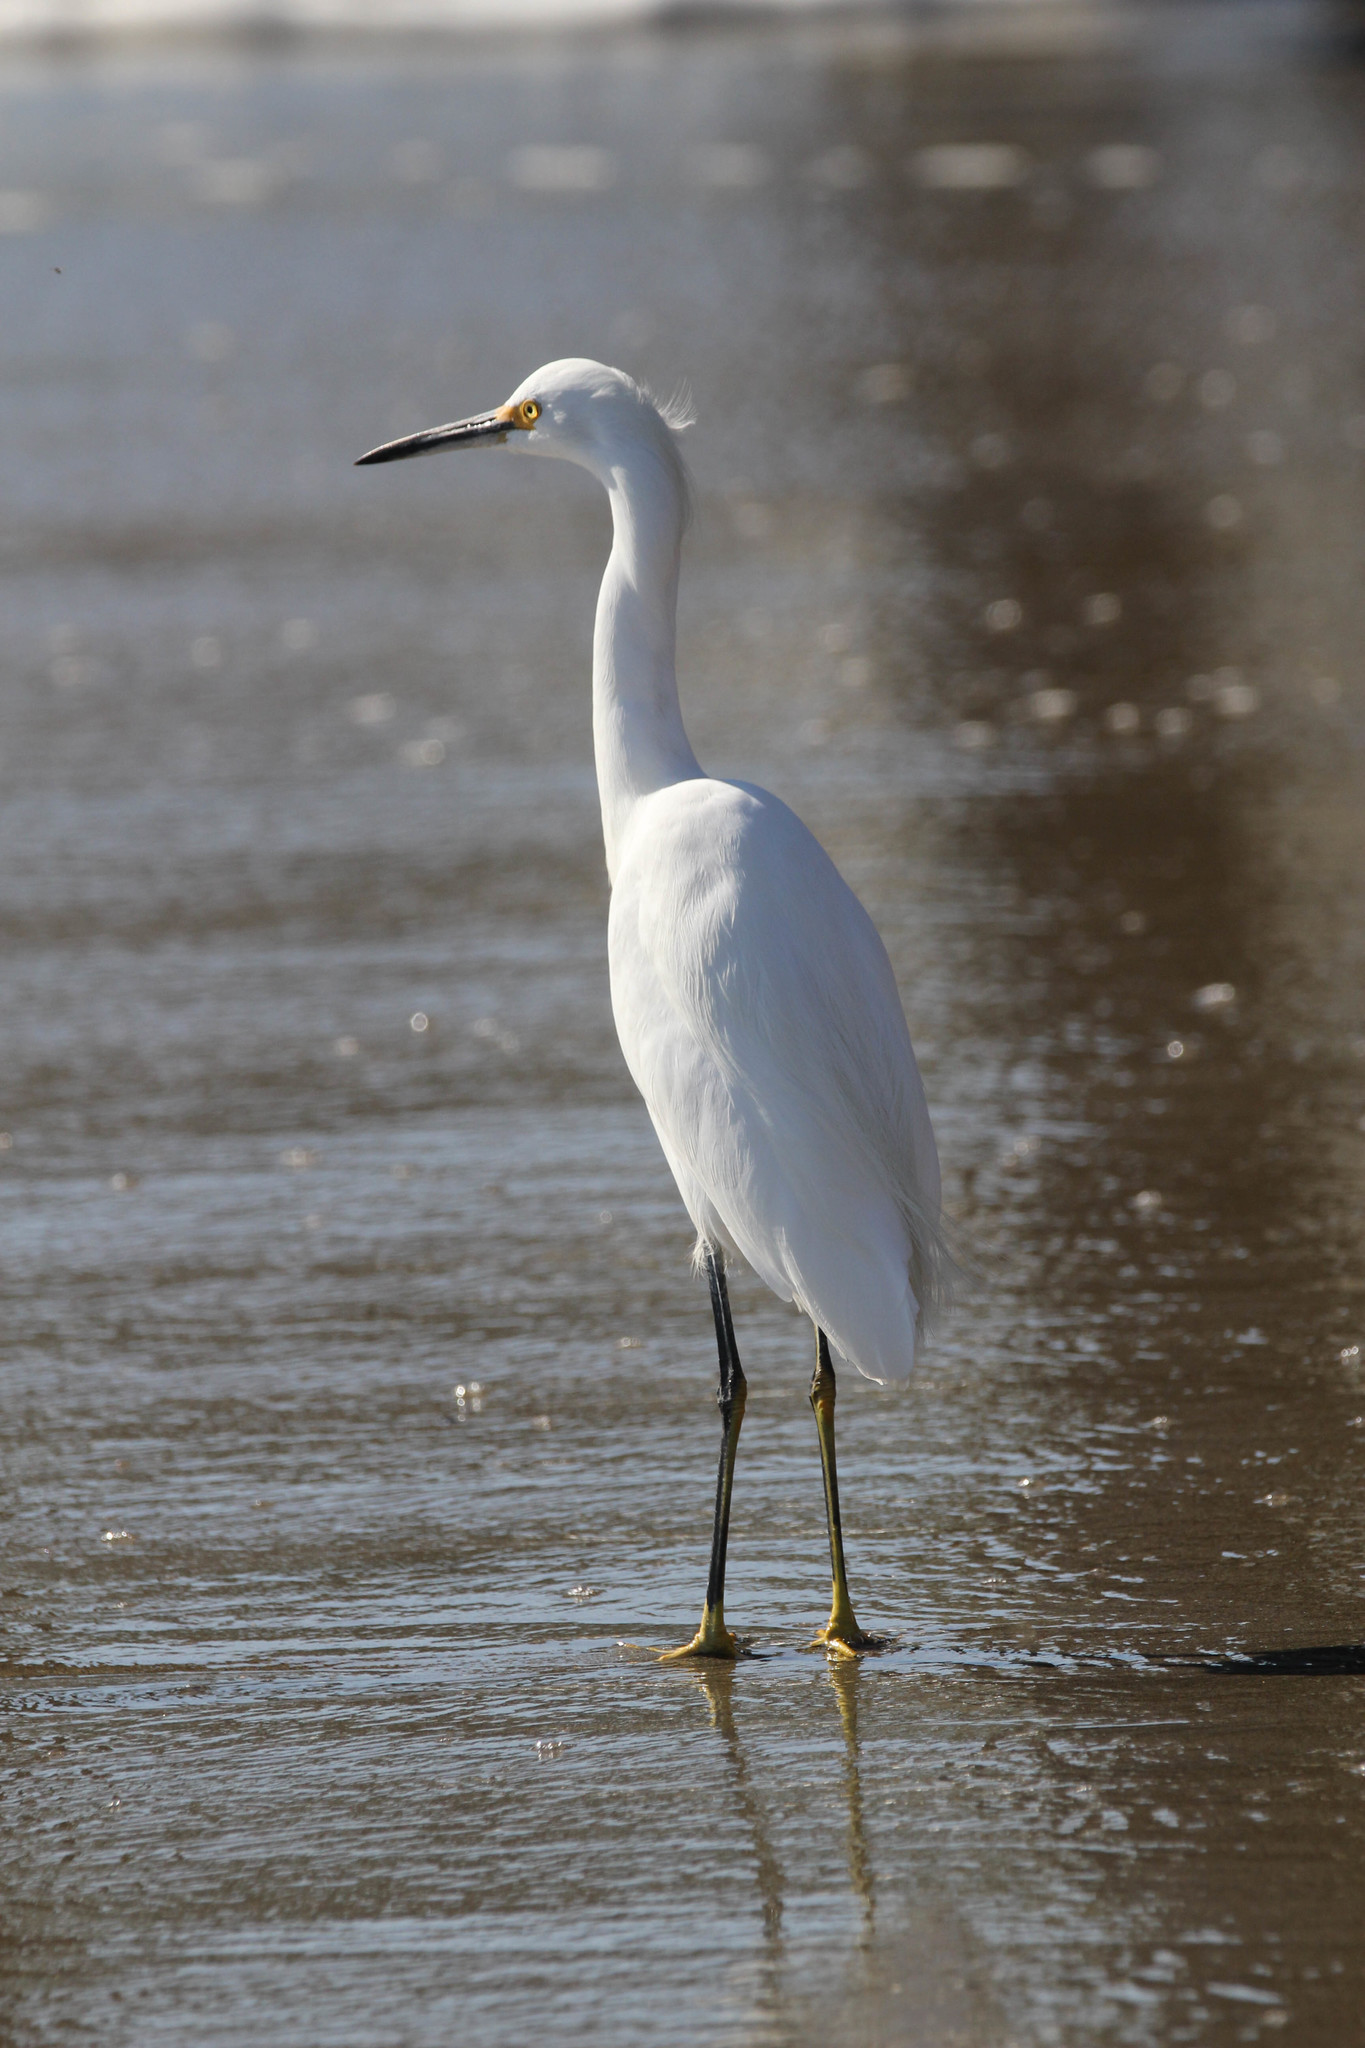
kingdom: Animalia
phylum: Chordata
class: Aves
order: Pelecaniformes
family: Ardeidae
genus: Egretta
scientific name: Egretta thula
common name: Snowy egret
